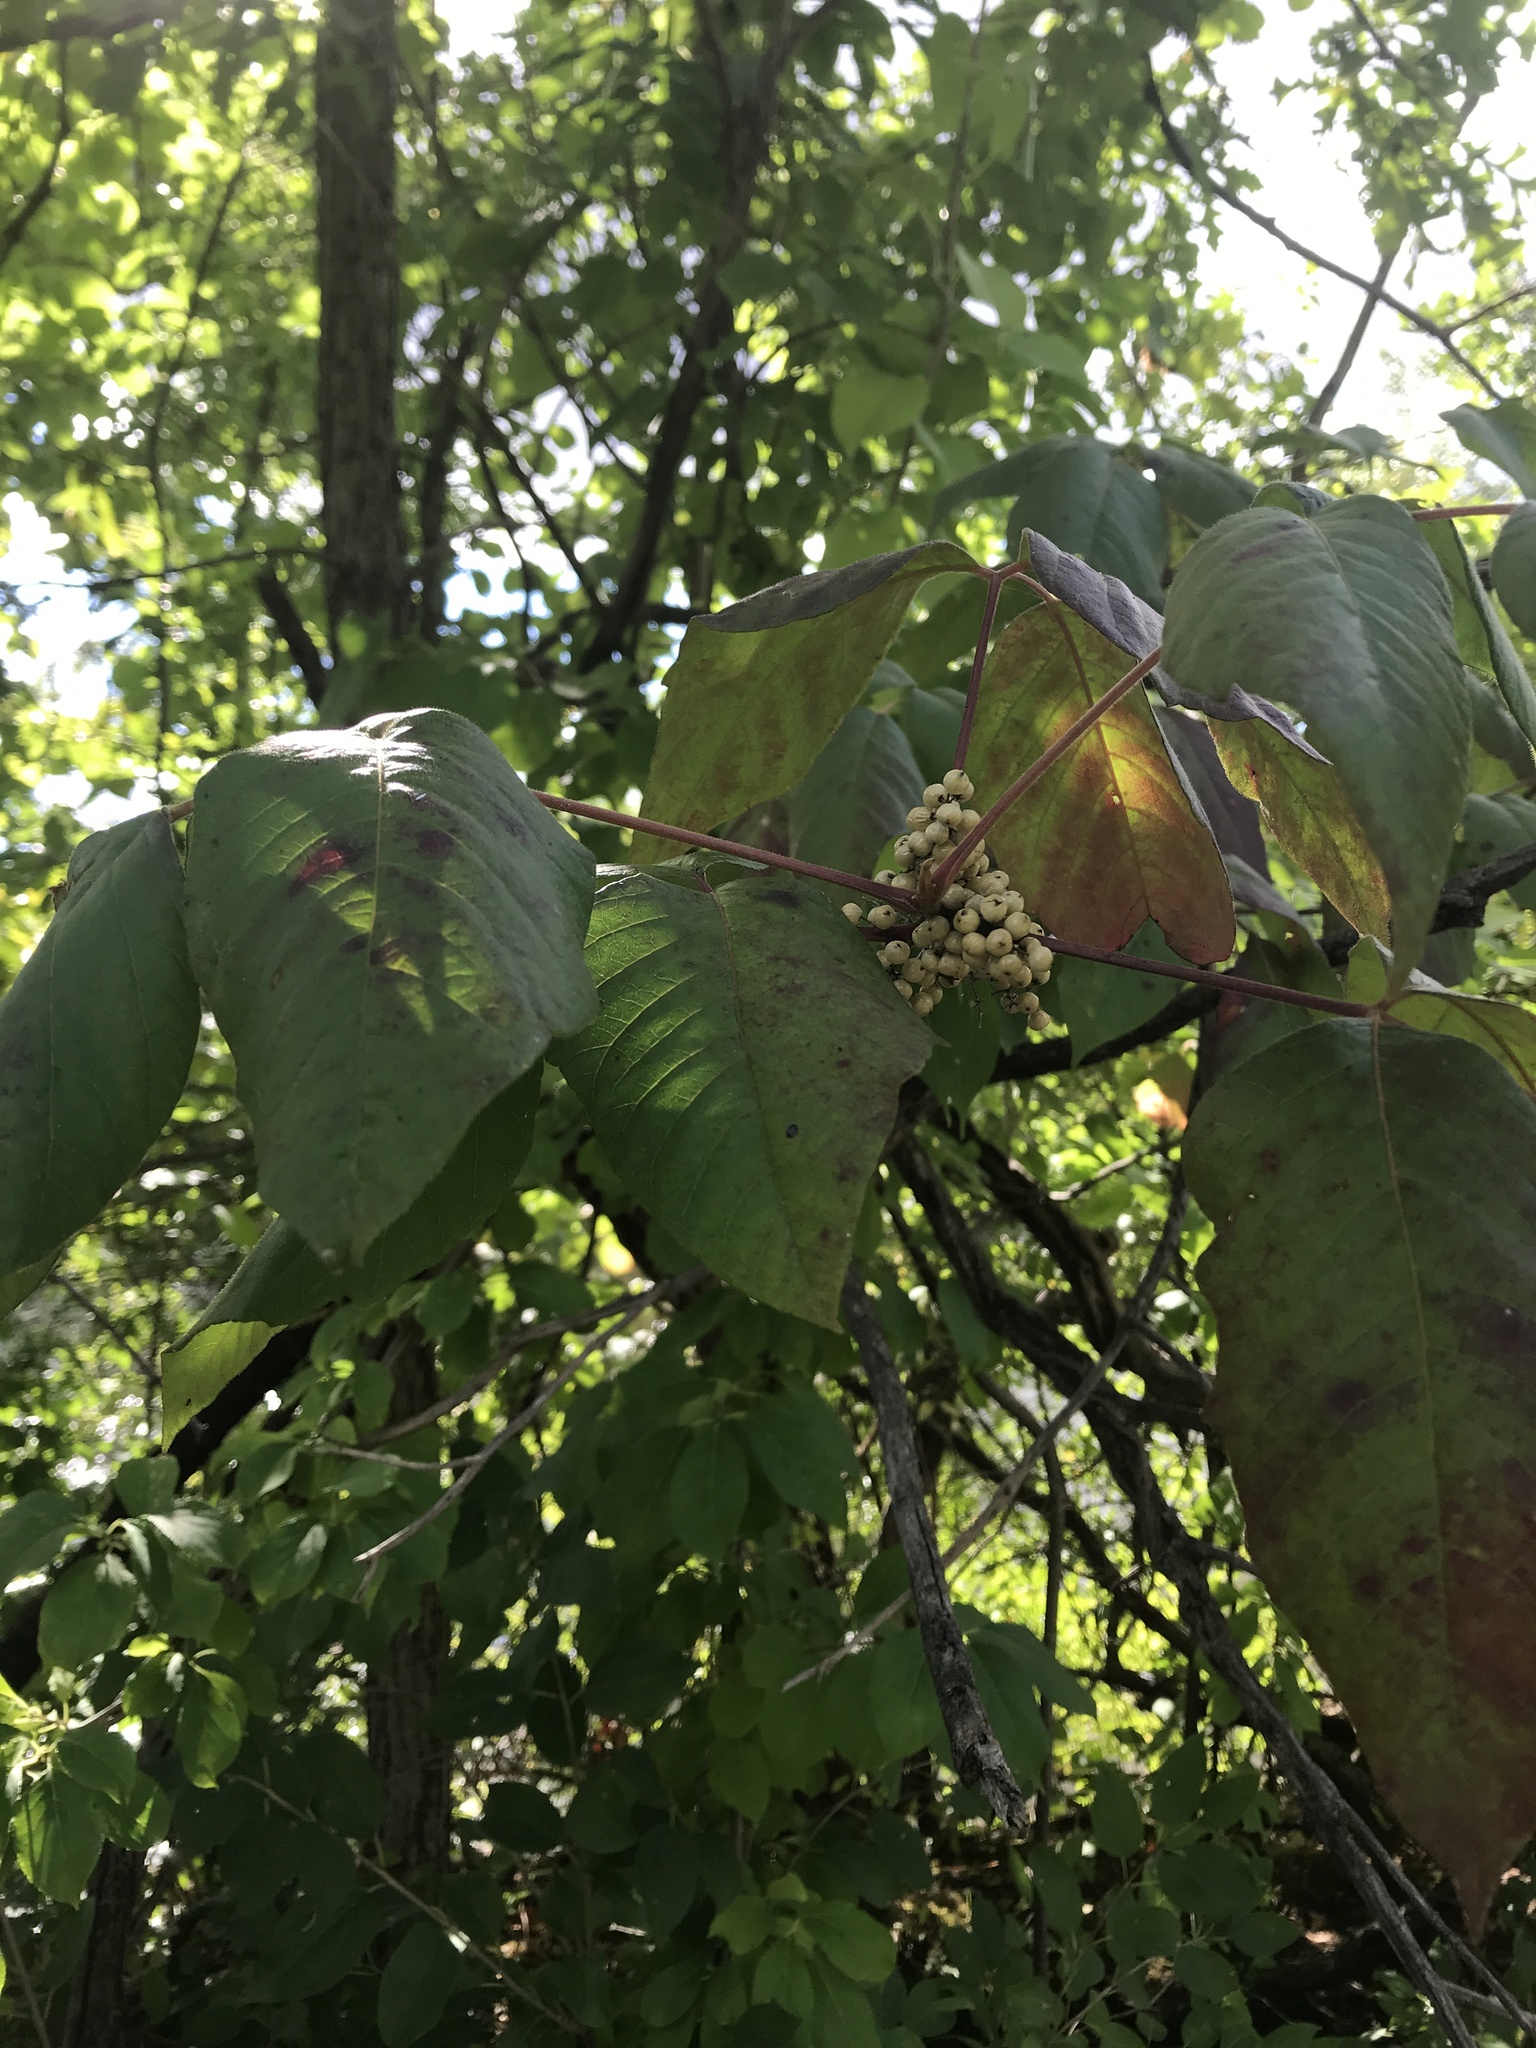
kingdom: Plantae
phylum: Tracheophyta
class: Magnoliopsida
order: Sapindales
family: Anacardiaceae
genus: Toxicodendron
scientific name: Toxicodendron radicans
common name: Poison ivy
